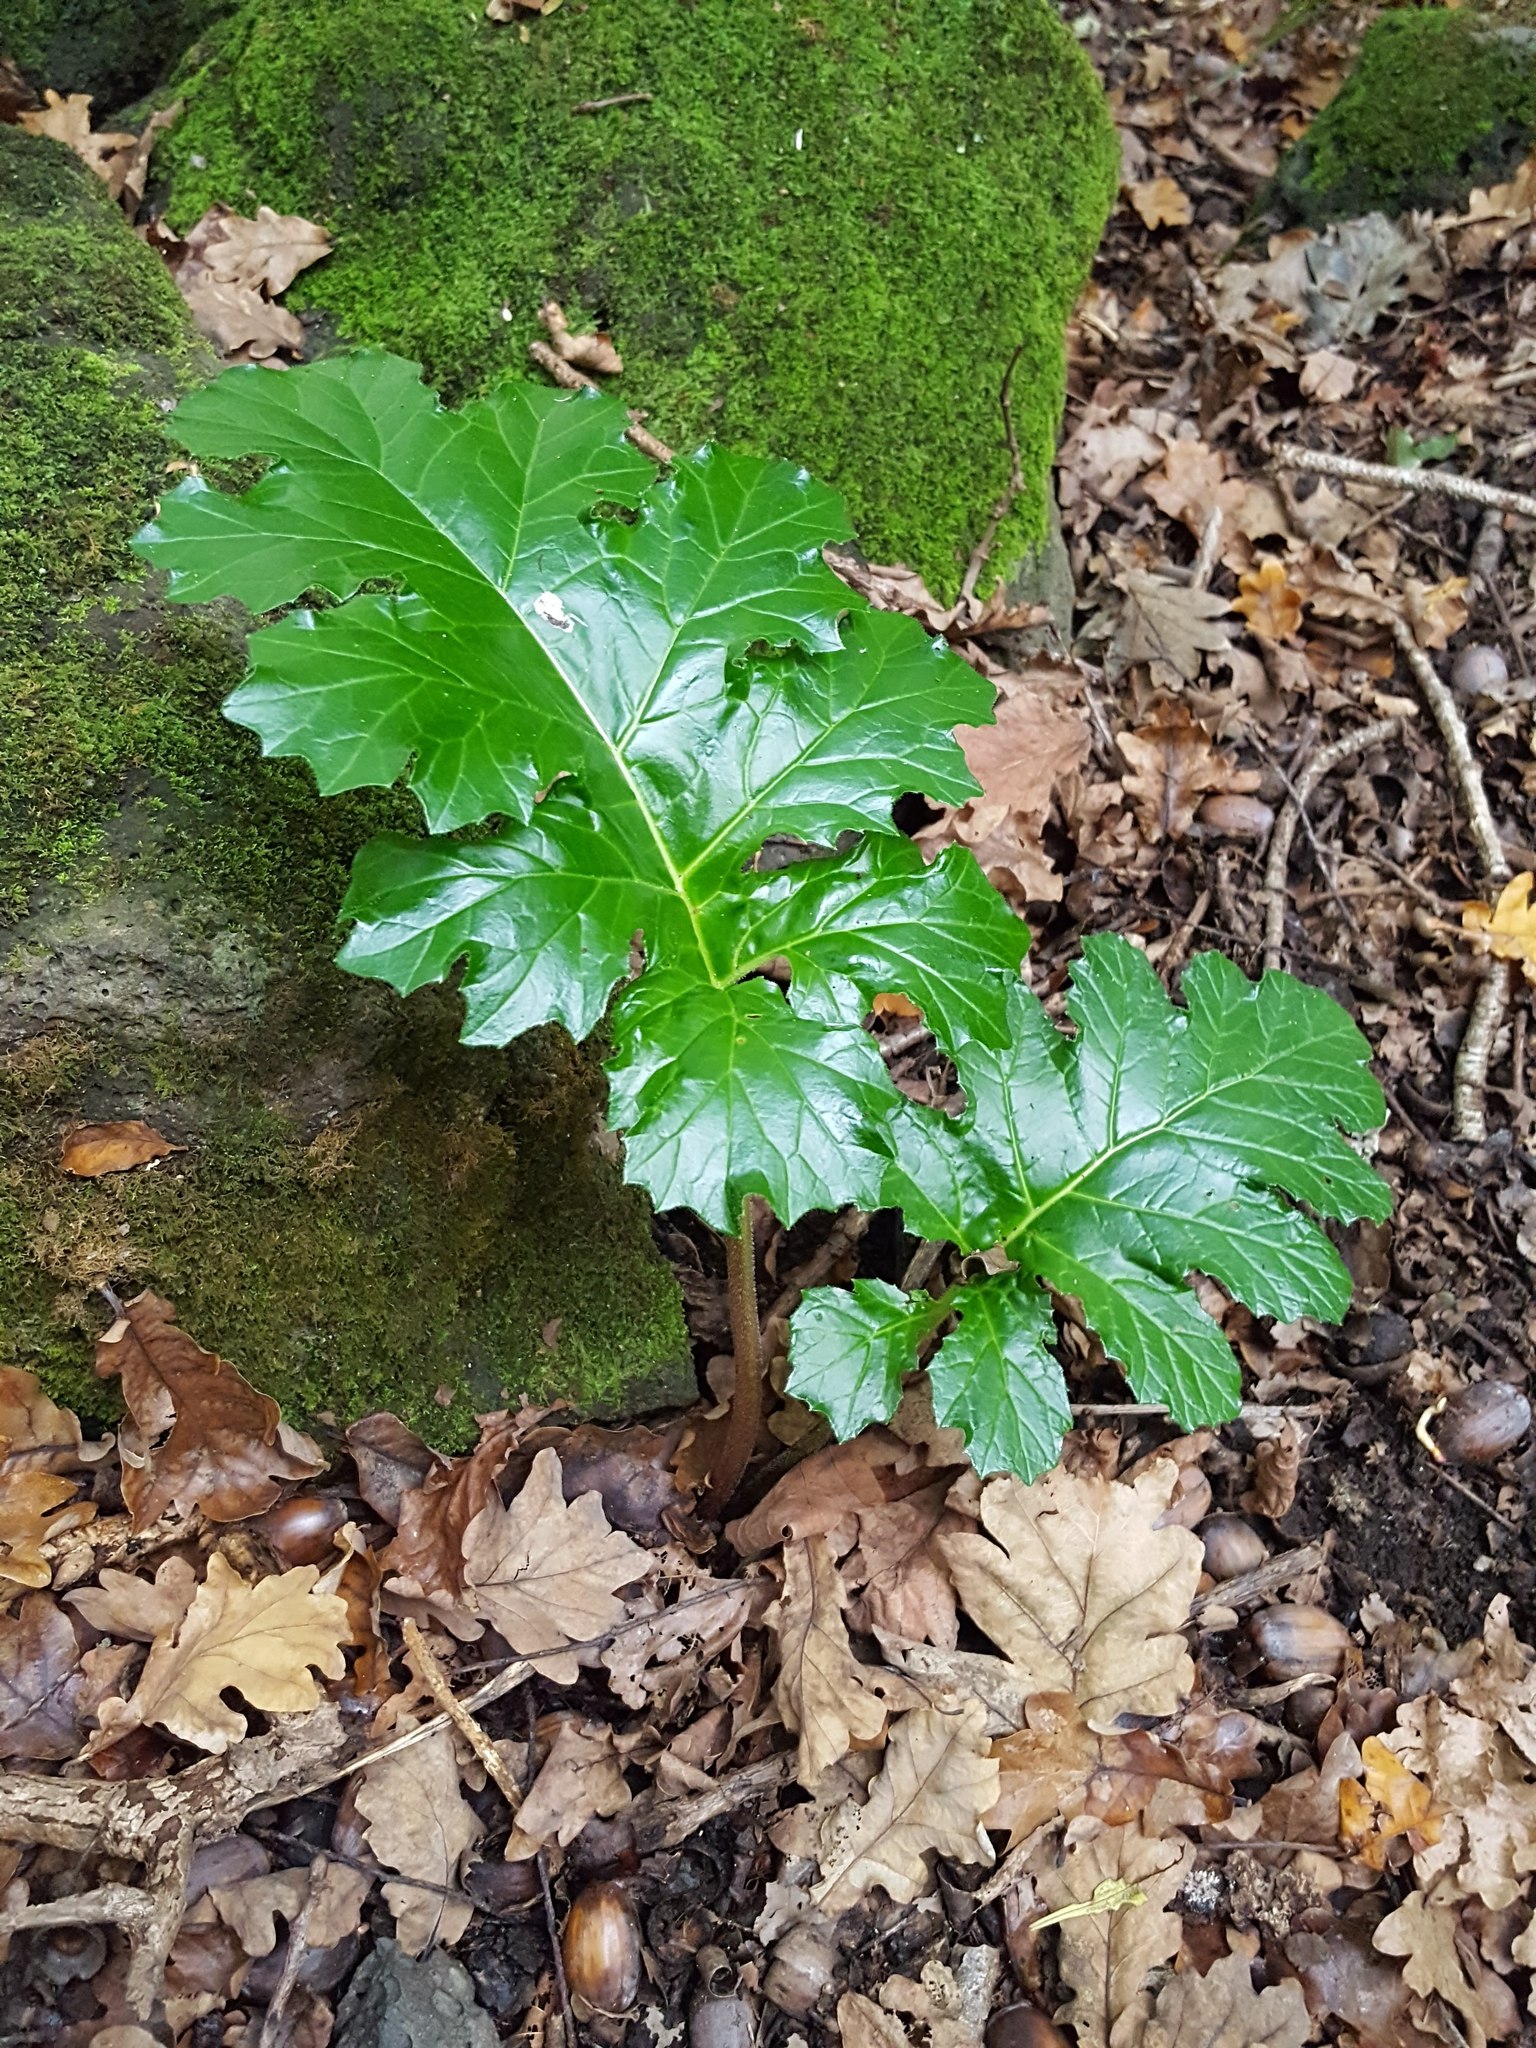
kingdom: Plantae
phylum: Tracheophyta
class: Magnoliopsida
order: Lamiales
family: Acanthaceae
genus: Acanthus
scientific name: Acanthus mollis
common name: Bear's-breech
